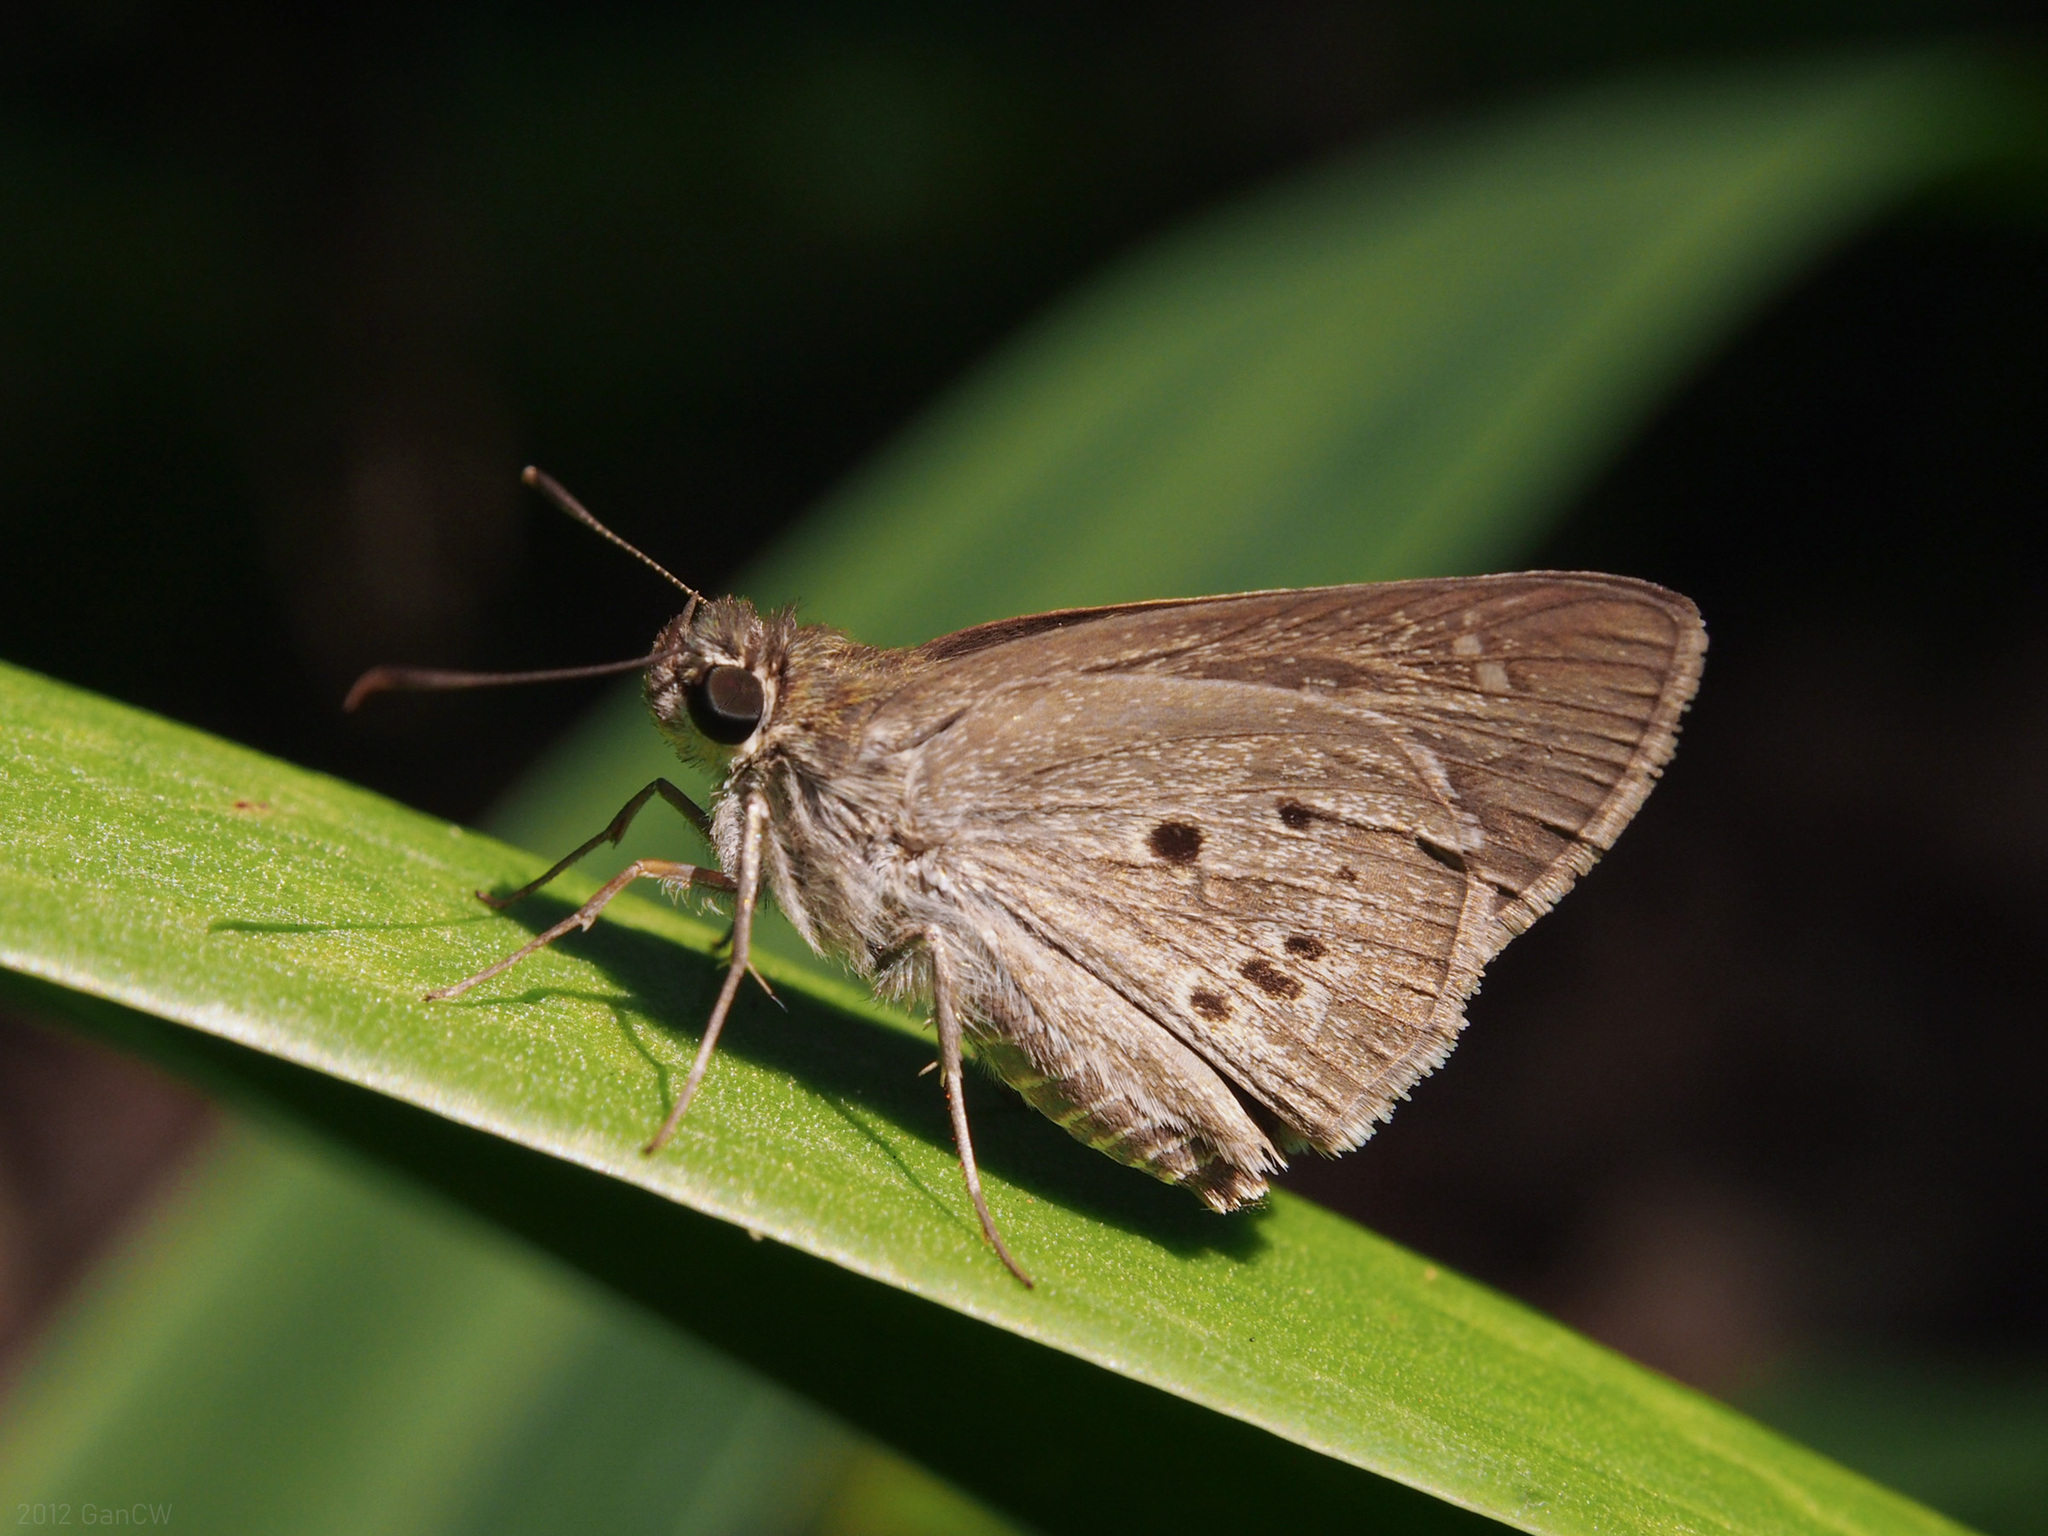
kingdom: Animalia
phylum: Arthropoda
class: Insecta
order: Lepidoptera
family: Hesperiidae
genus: Suastus
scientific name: Suastus gremius
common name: Indian palm bob
